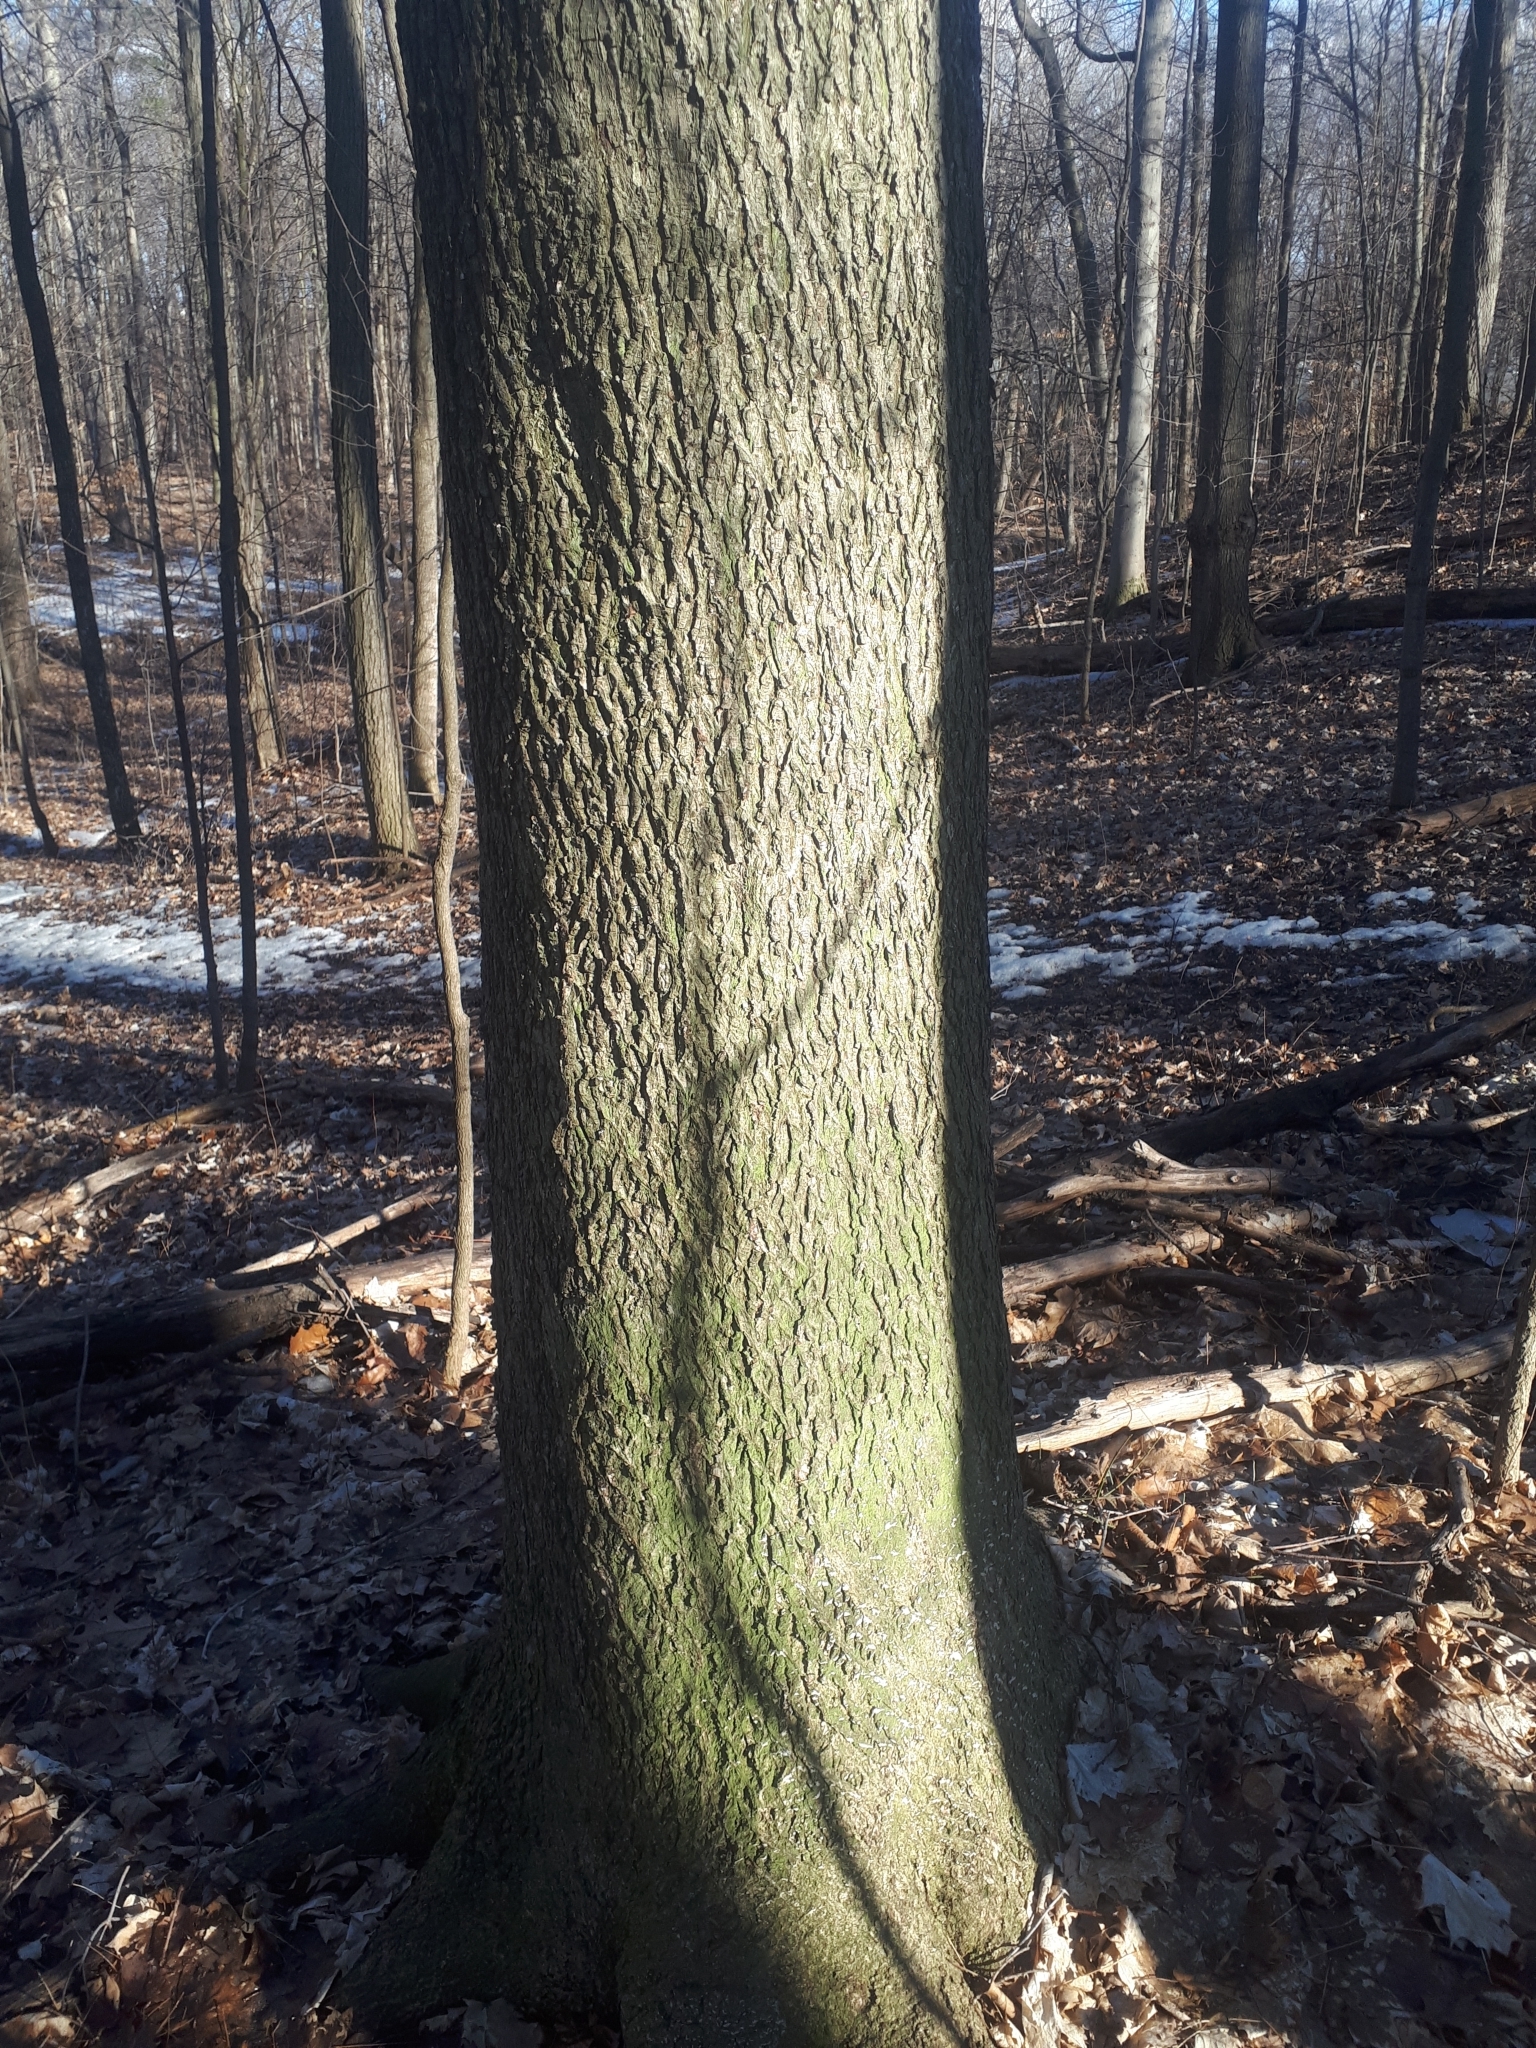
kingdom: Plantae
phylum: Tracheophyta
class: Magnoliopsida
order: Fagales
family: Juglandaceae
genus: Carya
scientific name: Carya cordiformis
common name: Bitternut hickory
